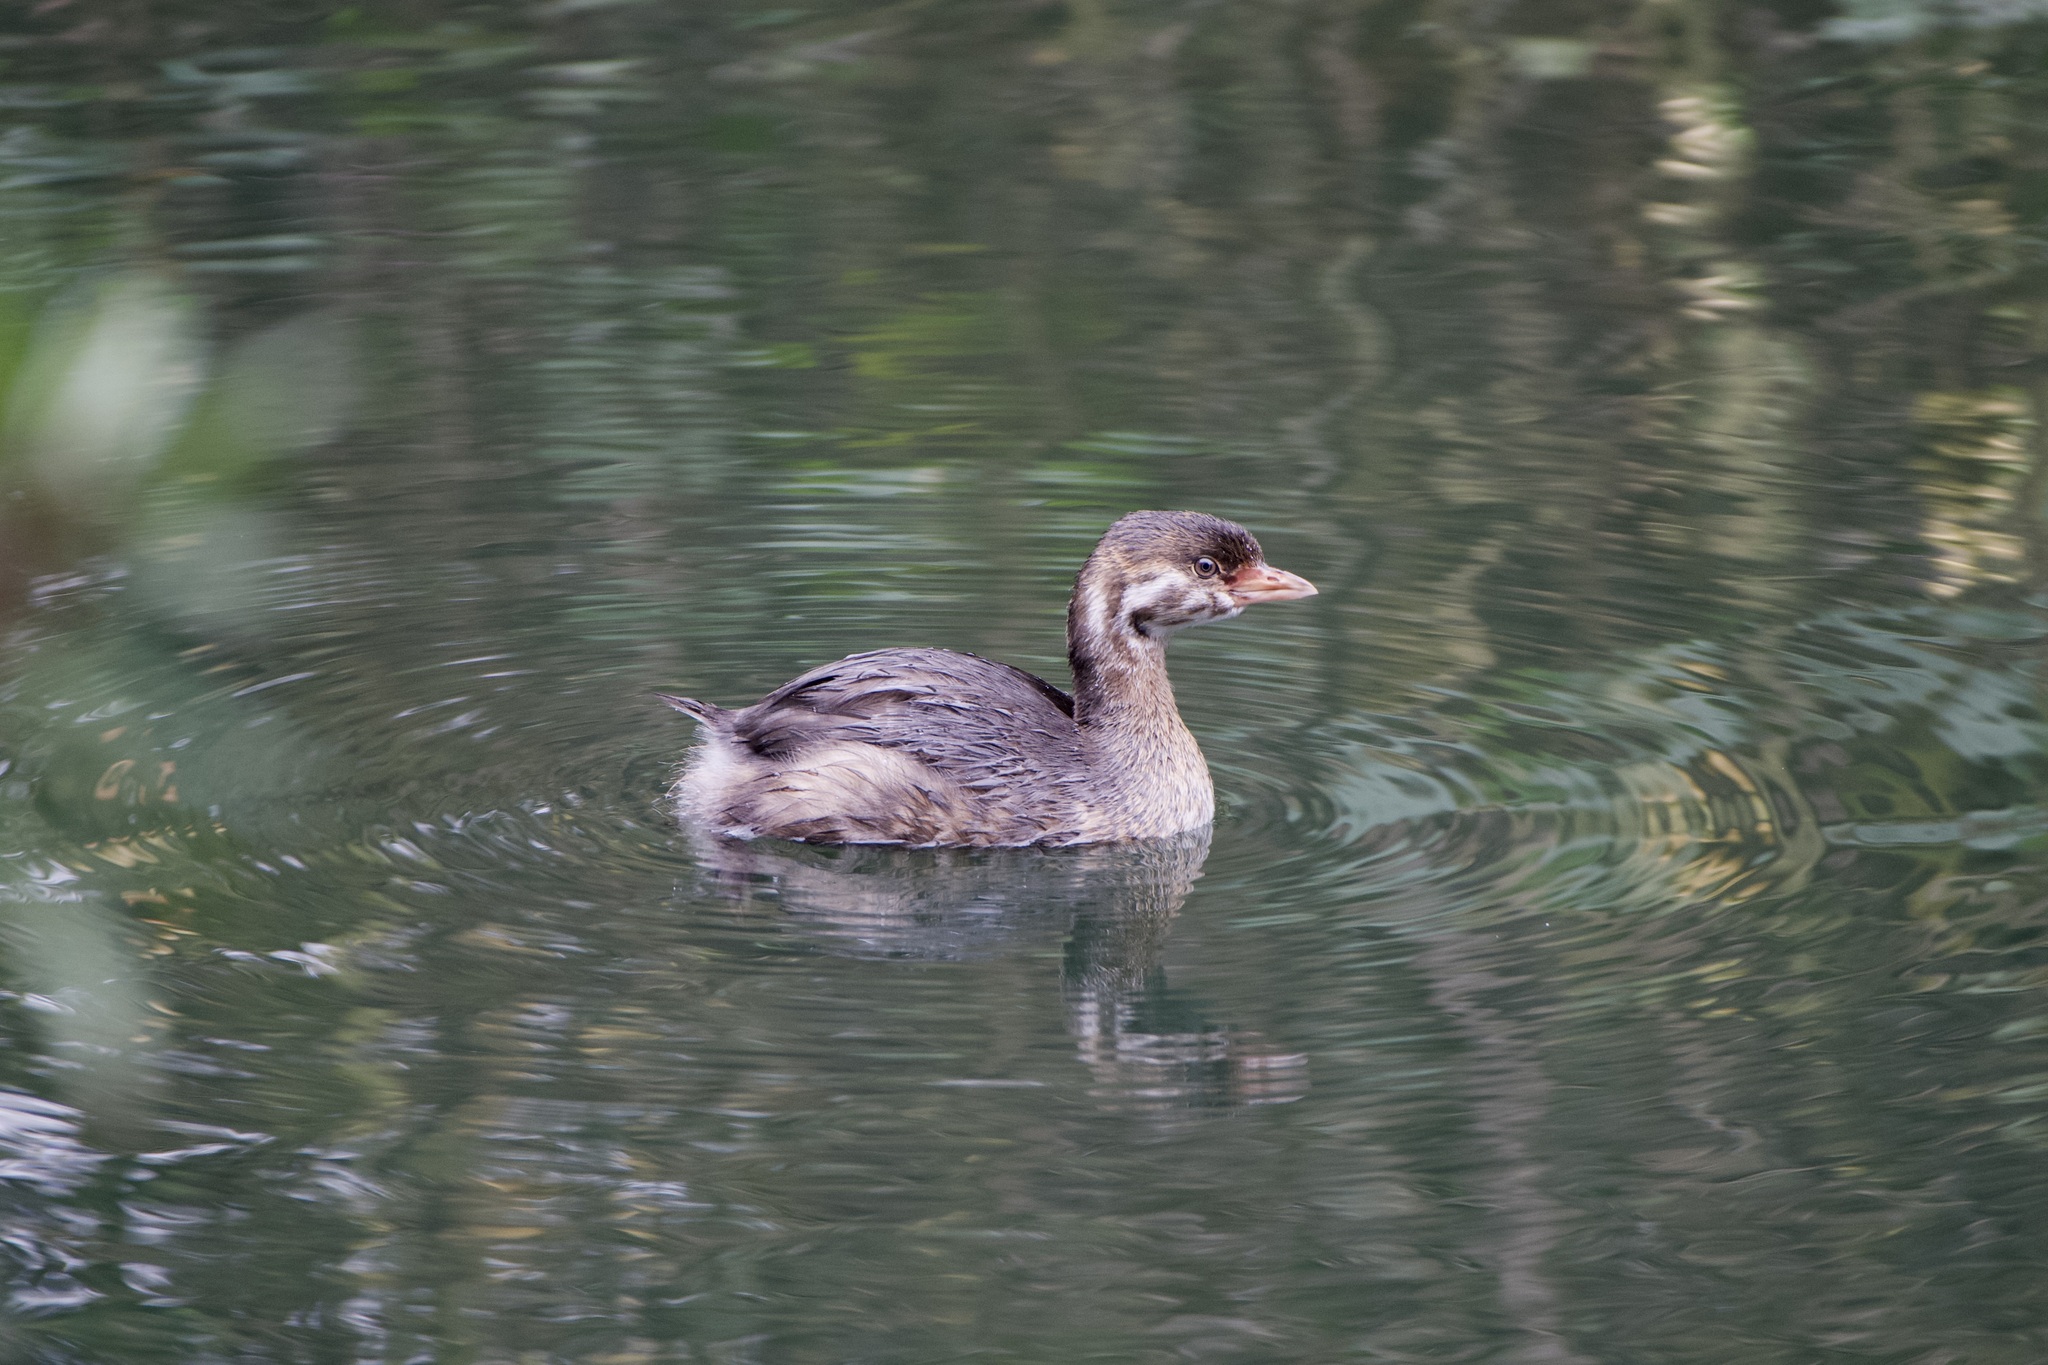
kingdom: Animalia
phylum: Chordata
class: Aves
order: Podicipediformes
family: Podicipedidae
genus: Podilymbus
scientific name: Podilymbus podiceps
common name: Pied-billed grebe
